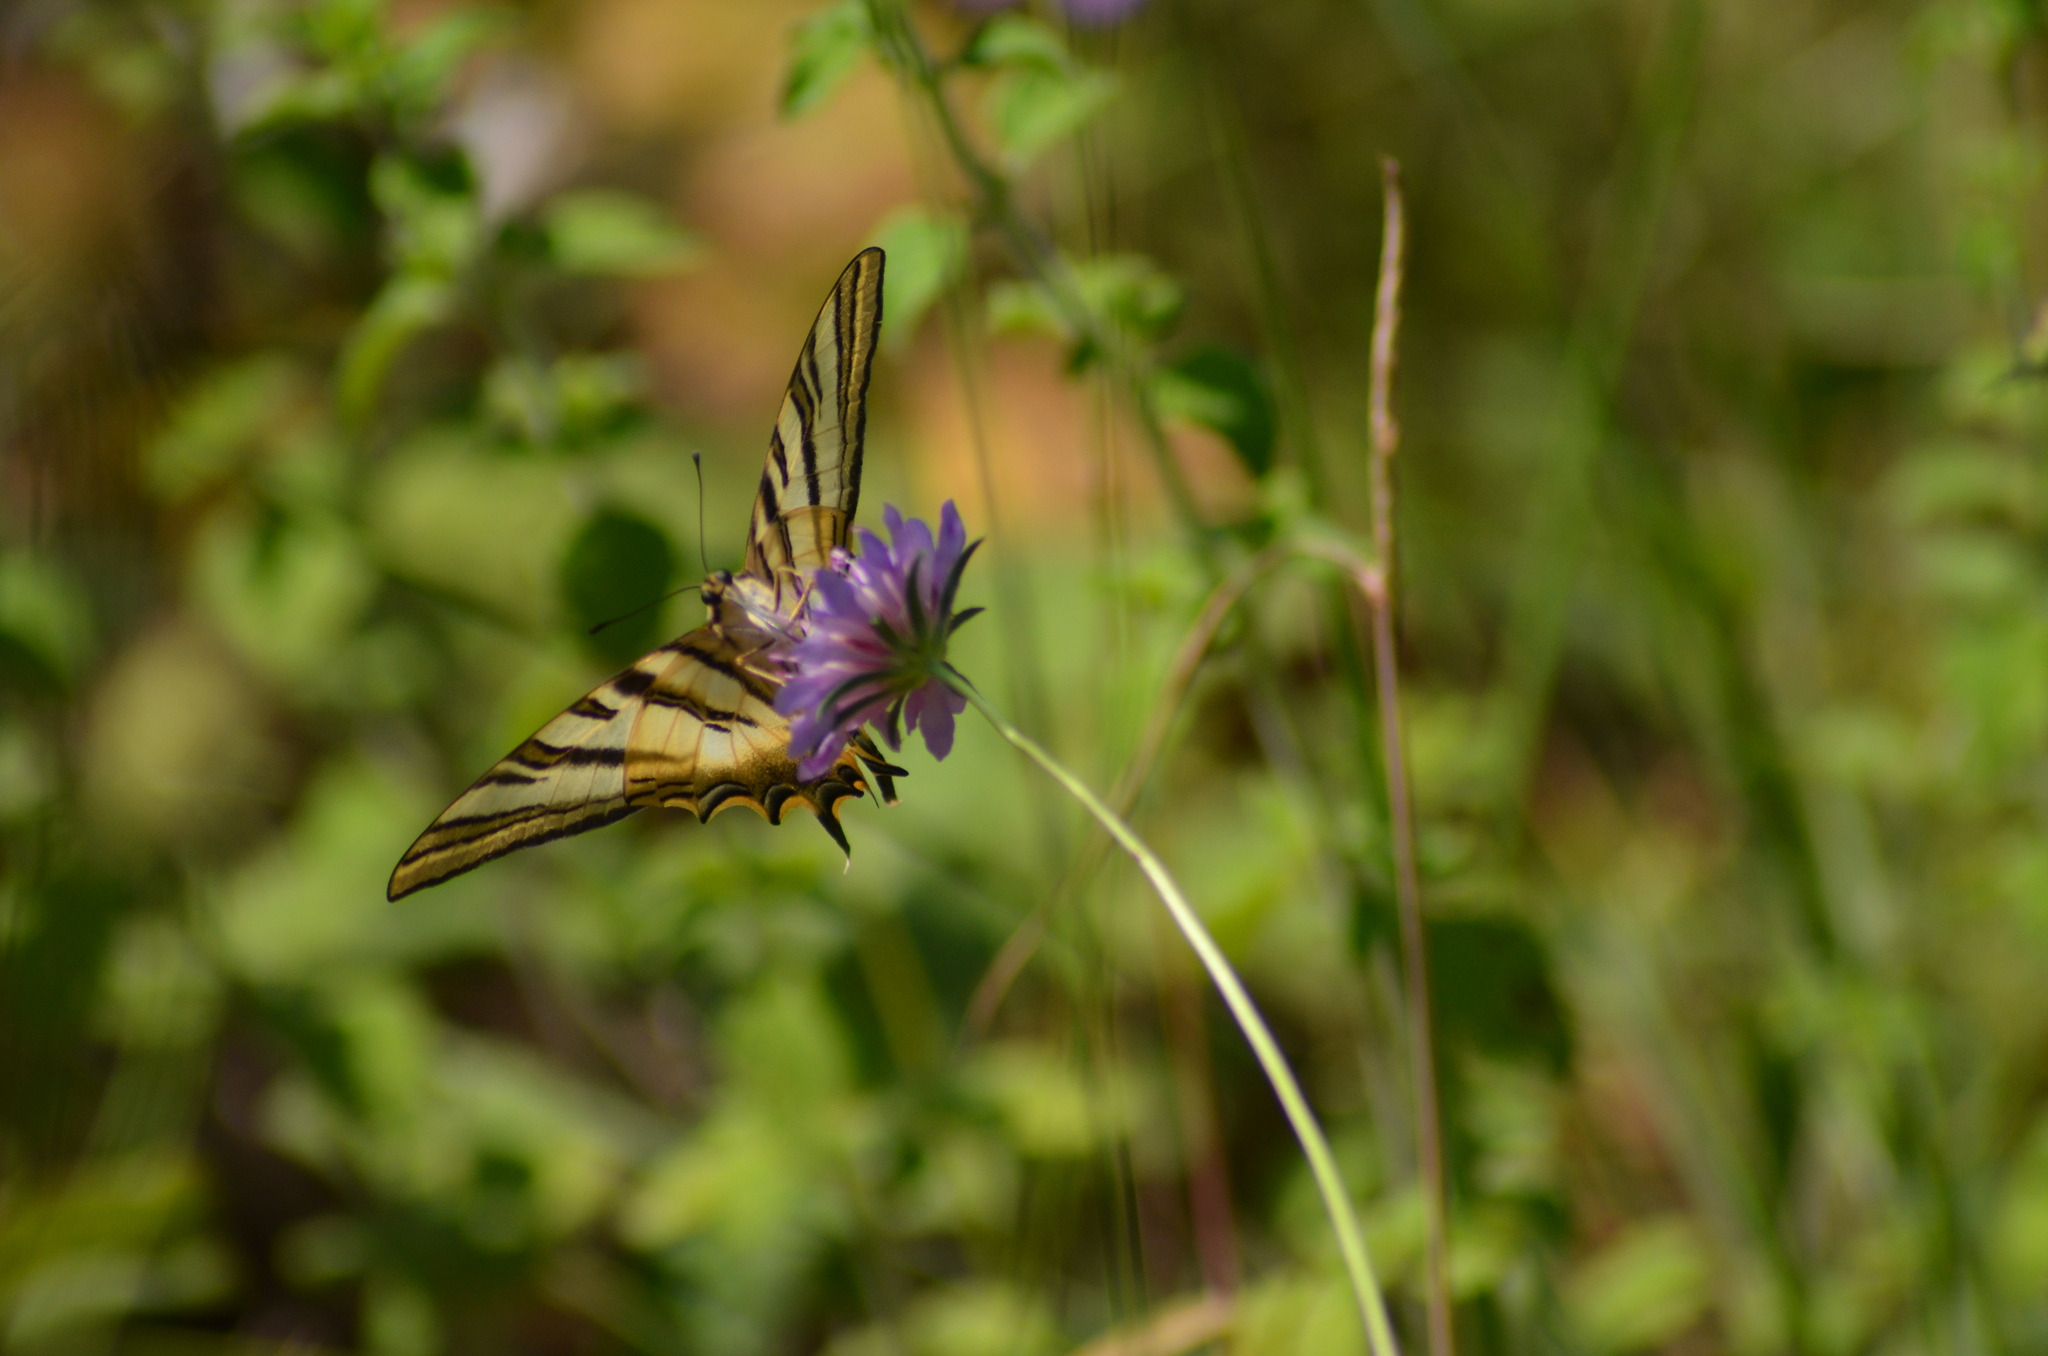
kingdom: Animalia
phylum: Arthropoda
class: Insecta
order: Lepidoptera
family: Papilionidae
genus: Iphiclides
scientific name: Iphiclides feisthamelii
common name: Iberian scarce swallowtail
